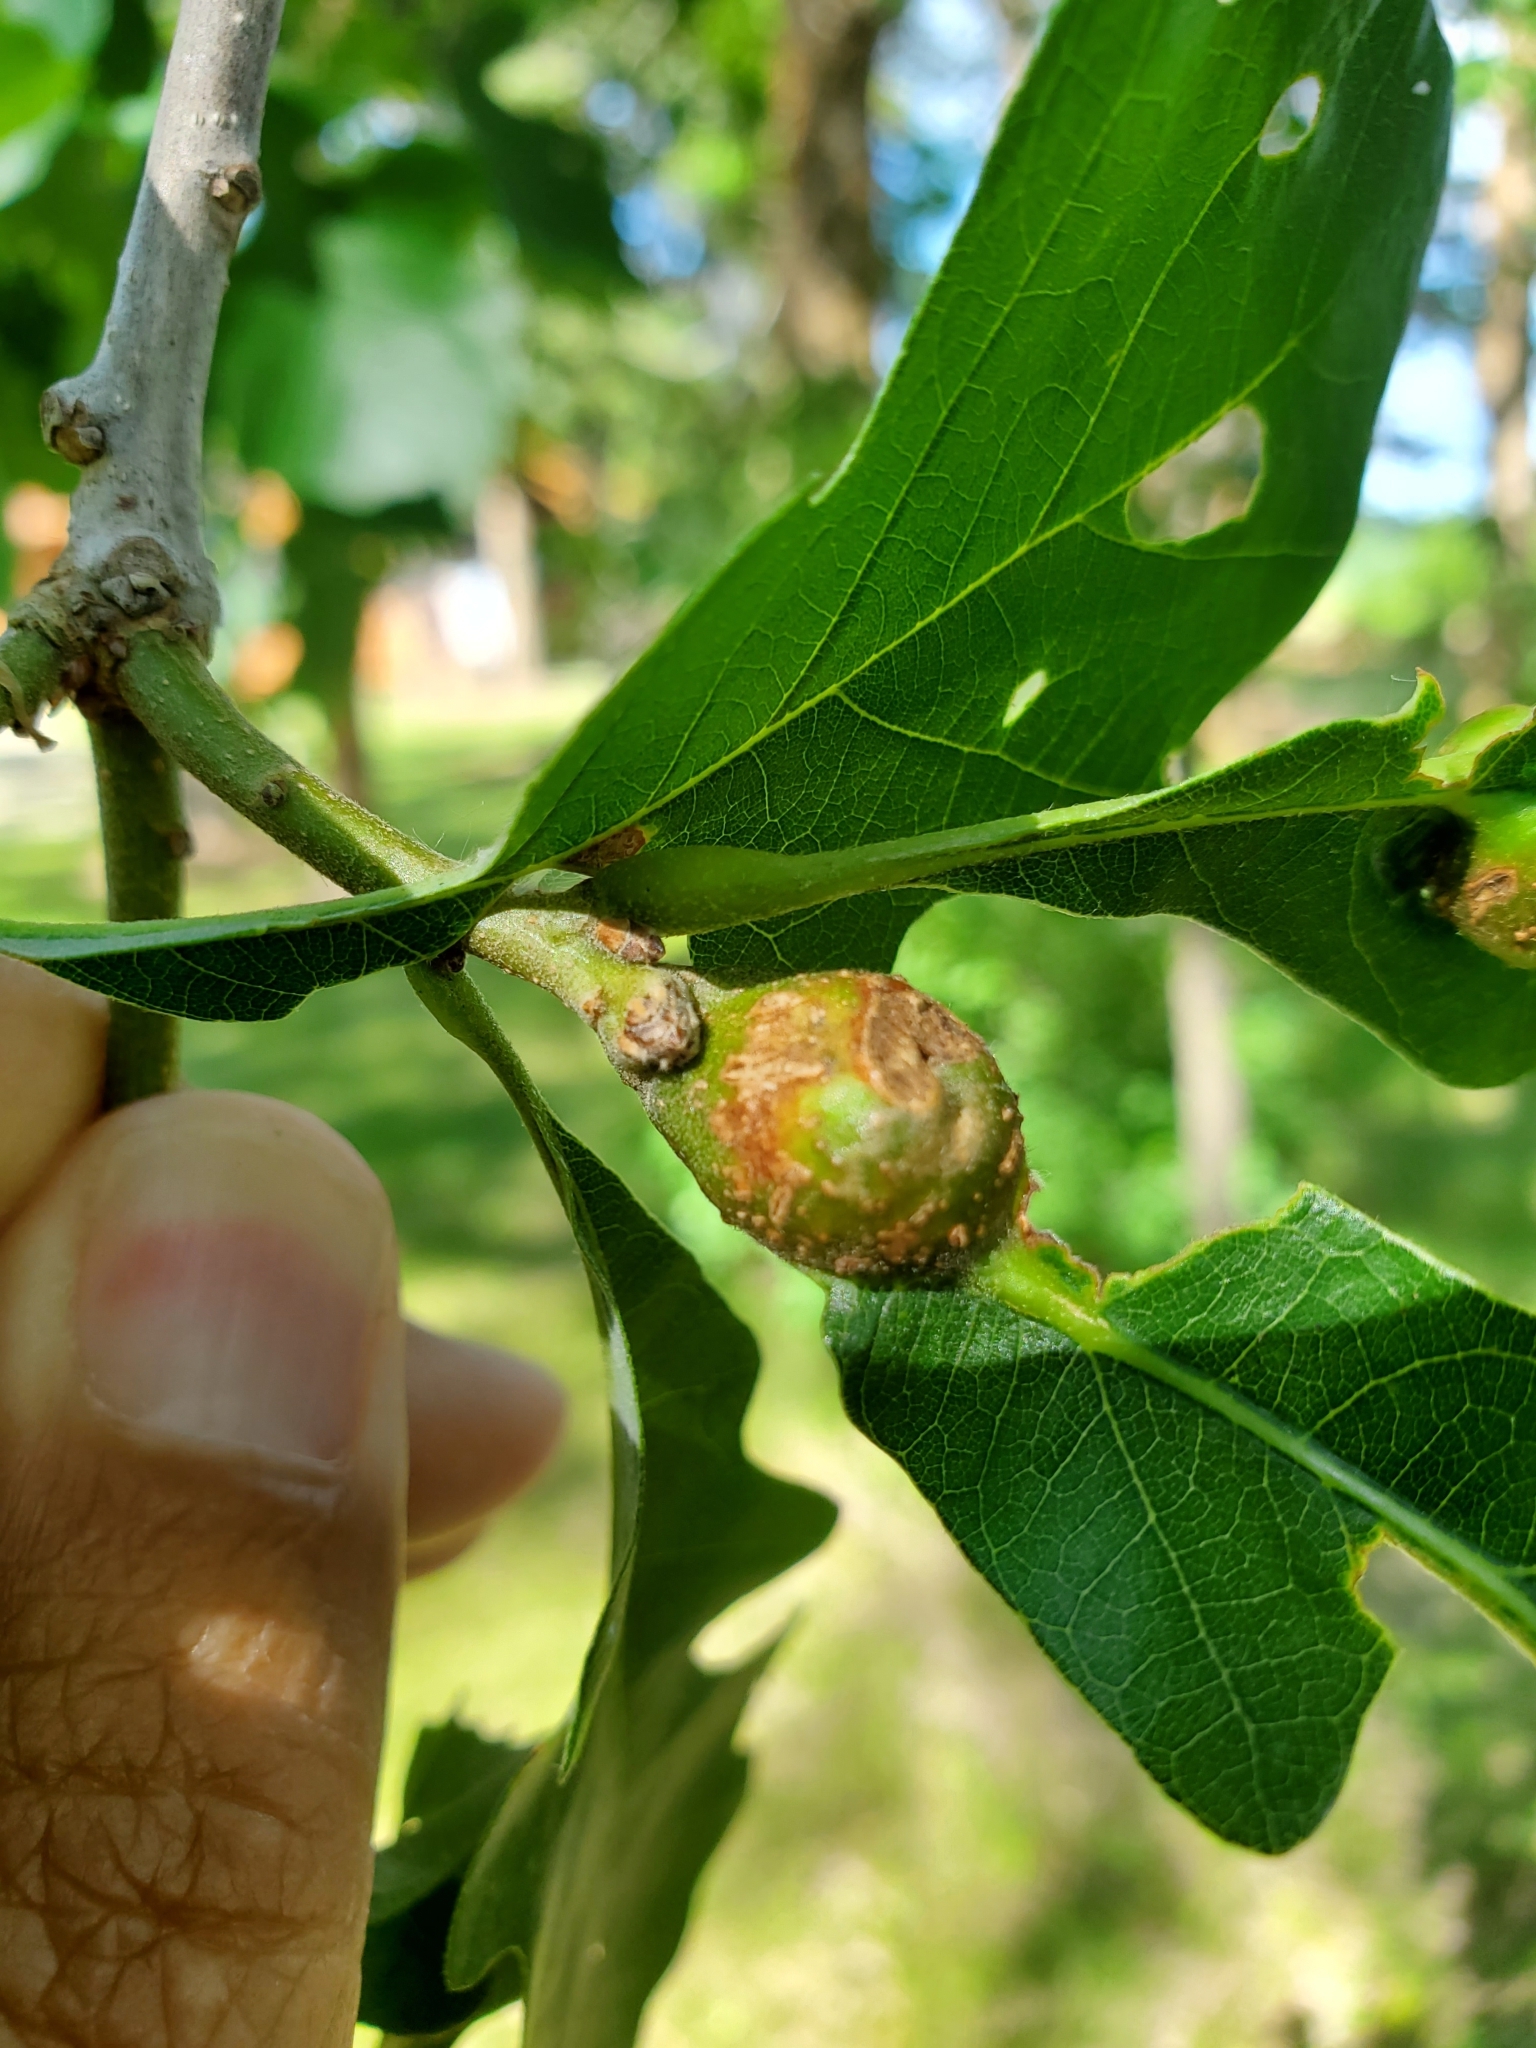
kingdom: Animalia
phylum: Arthropoda
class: Insecta
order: Hymenoptera
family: Cynipidae
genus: Andricus
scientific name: Andricus
